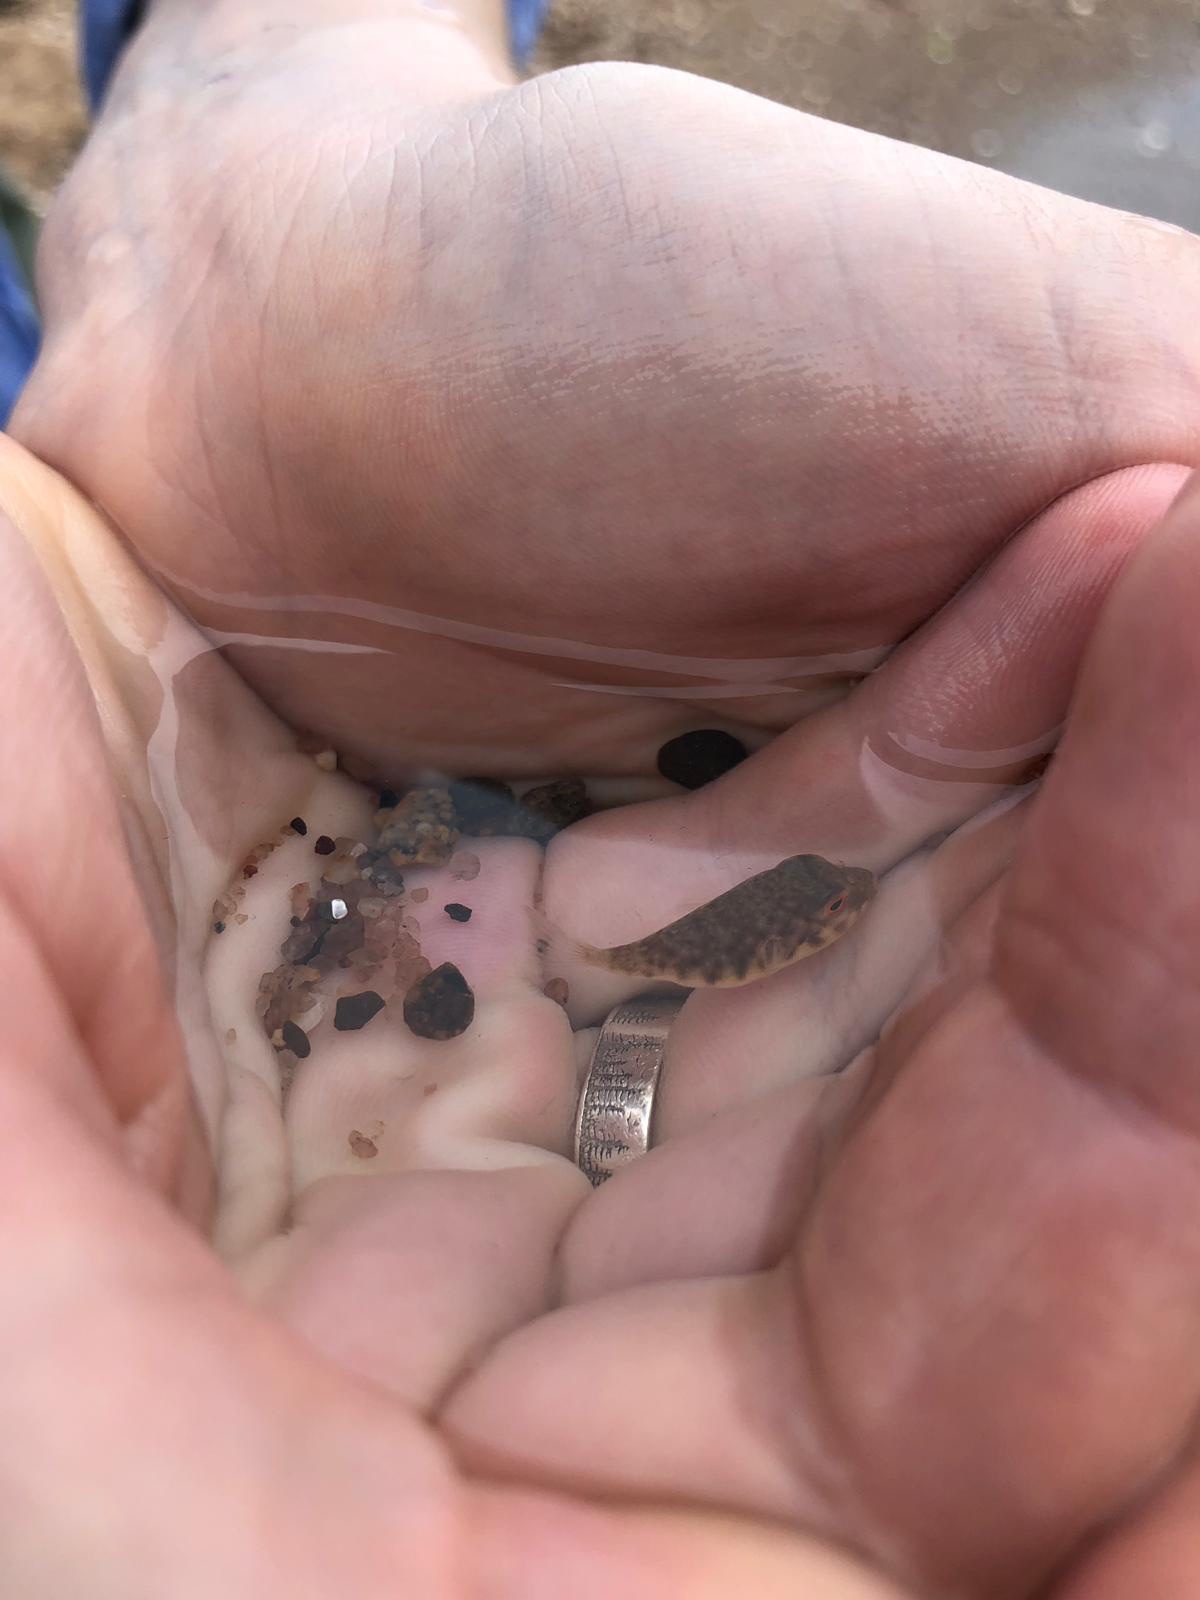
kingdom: Animalia
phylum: Chordata
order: Tetraodontiformes
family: Tetraodontidae
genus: Sphoeroides
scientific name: Sphoeroides maculatus
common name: Northern puffer
